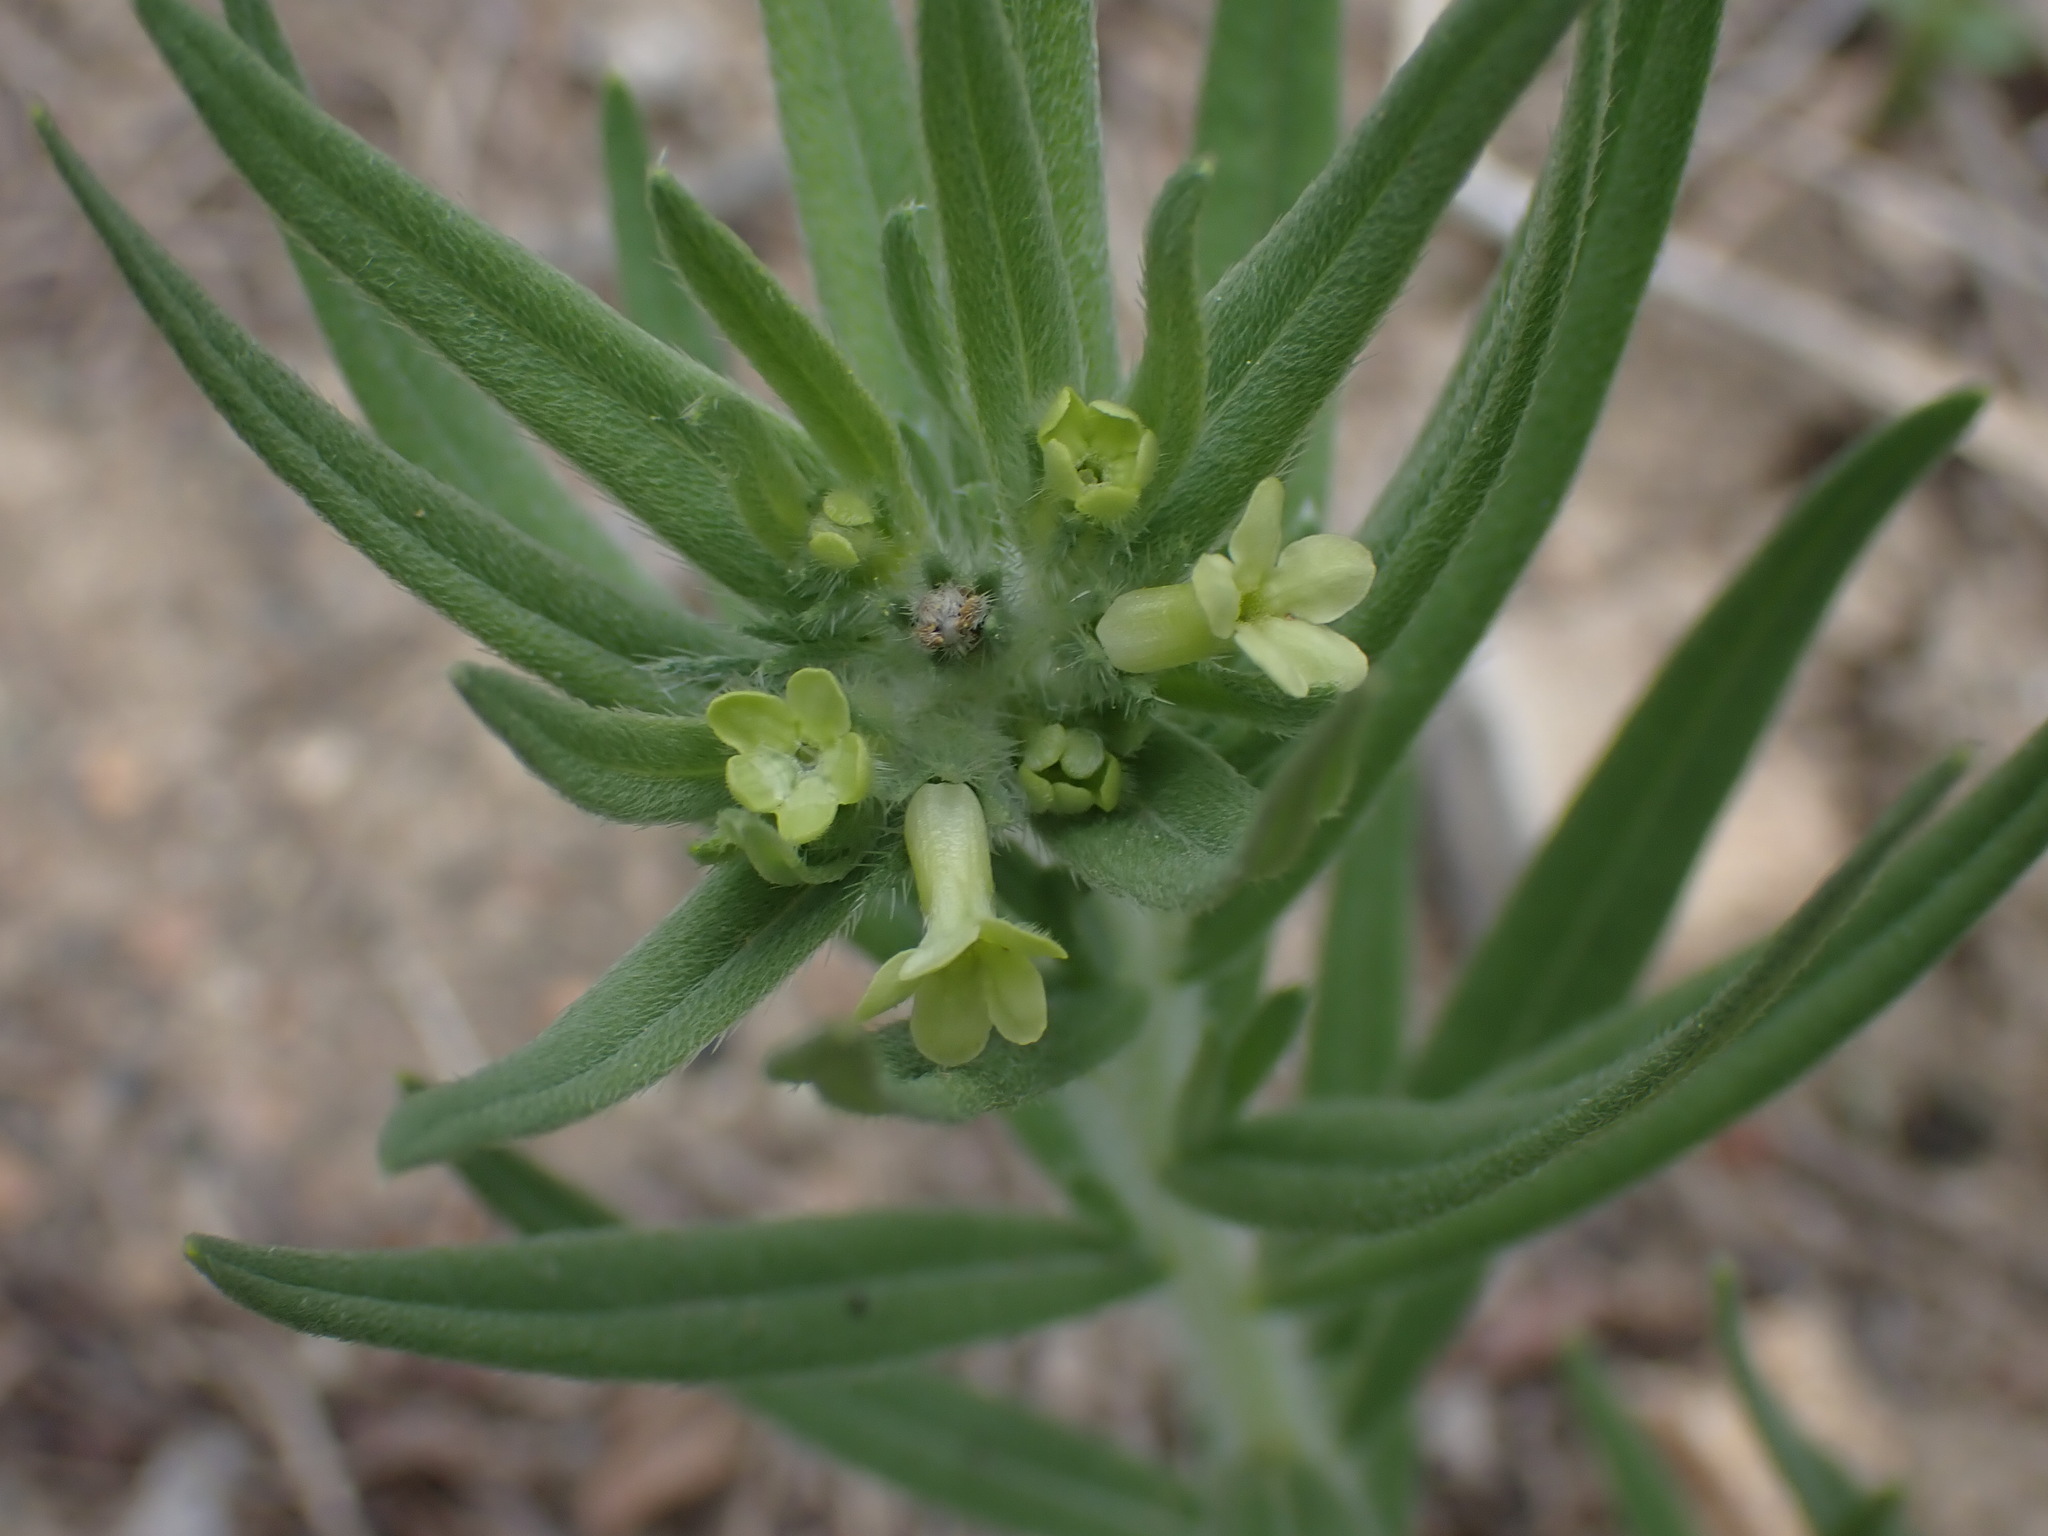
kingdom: Plantae
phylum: Tracheophyta
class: Magnoliopsida
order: Boraginales
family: Boraginaceae
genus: Lithospermum
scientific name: Lithospermum ruderale
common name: Western gromwell
